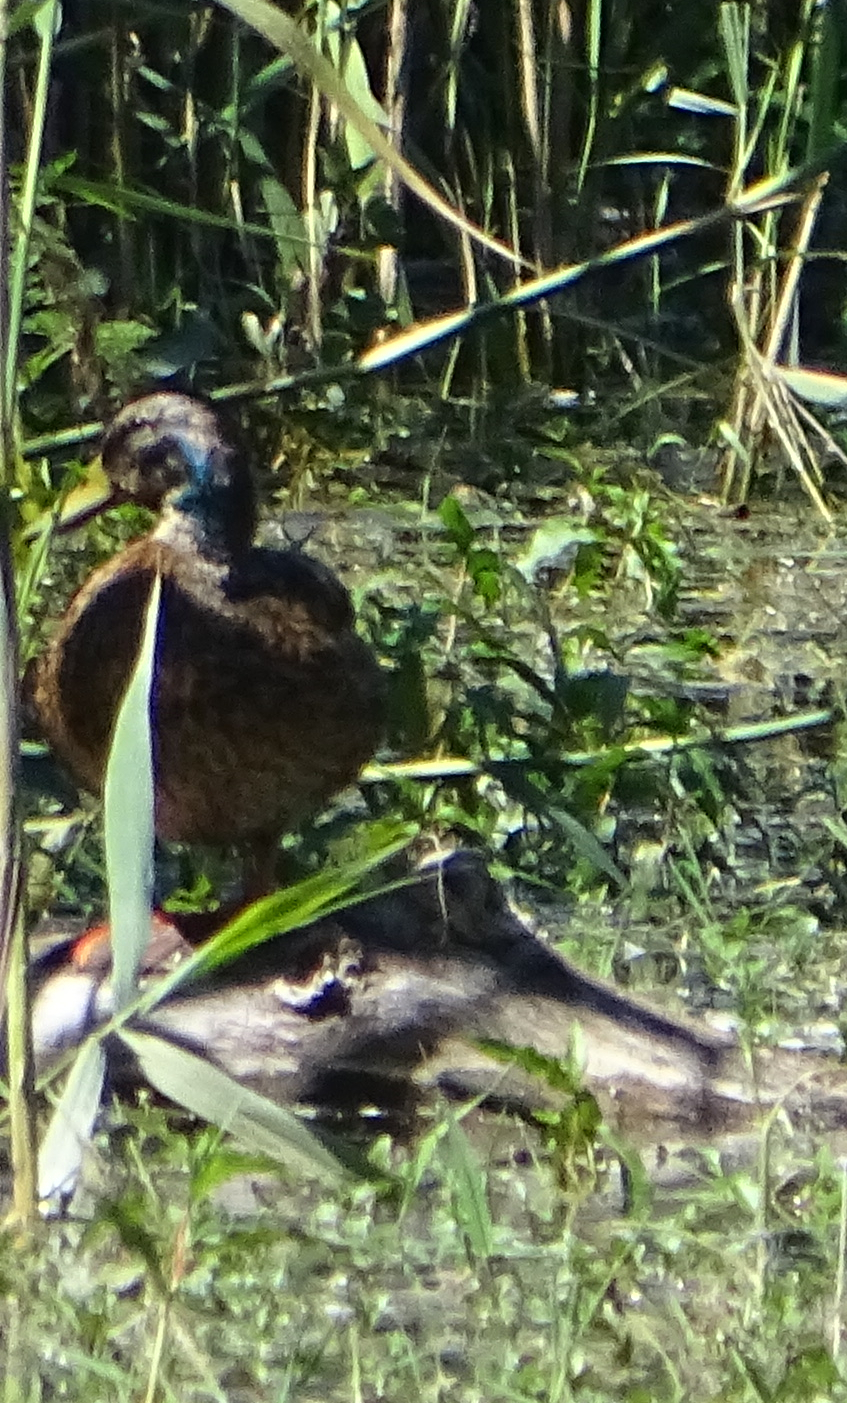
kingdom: Animalia
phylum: Chordata
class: Aves
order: Anseriformes
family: Anatidae
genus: Anas
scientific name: Anas platyrhynchos
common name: Mallard
